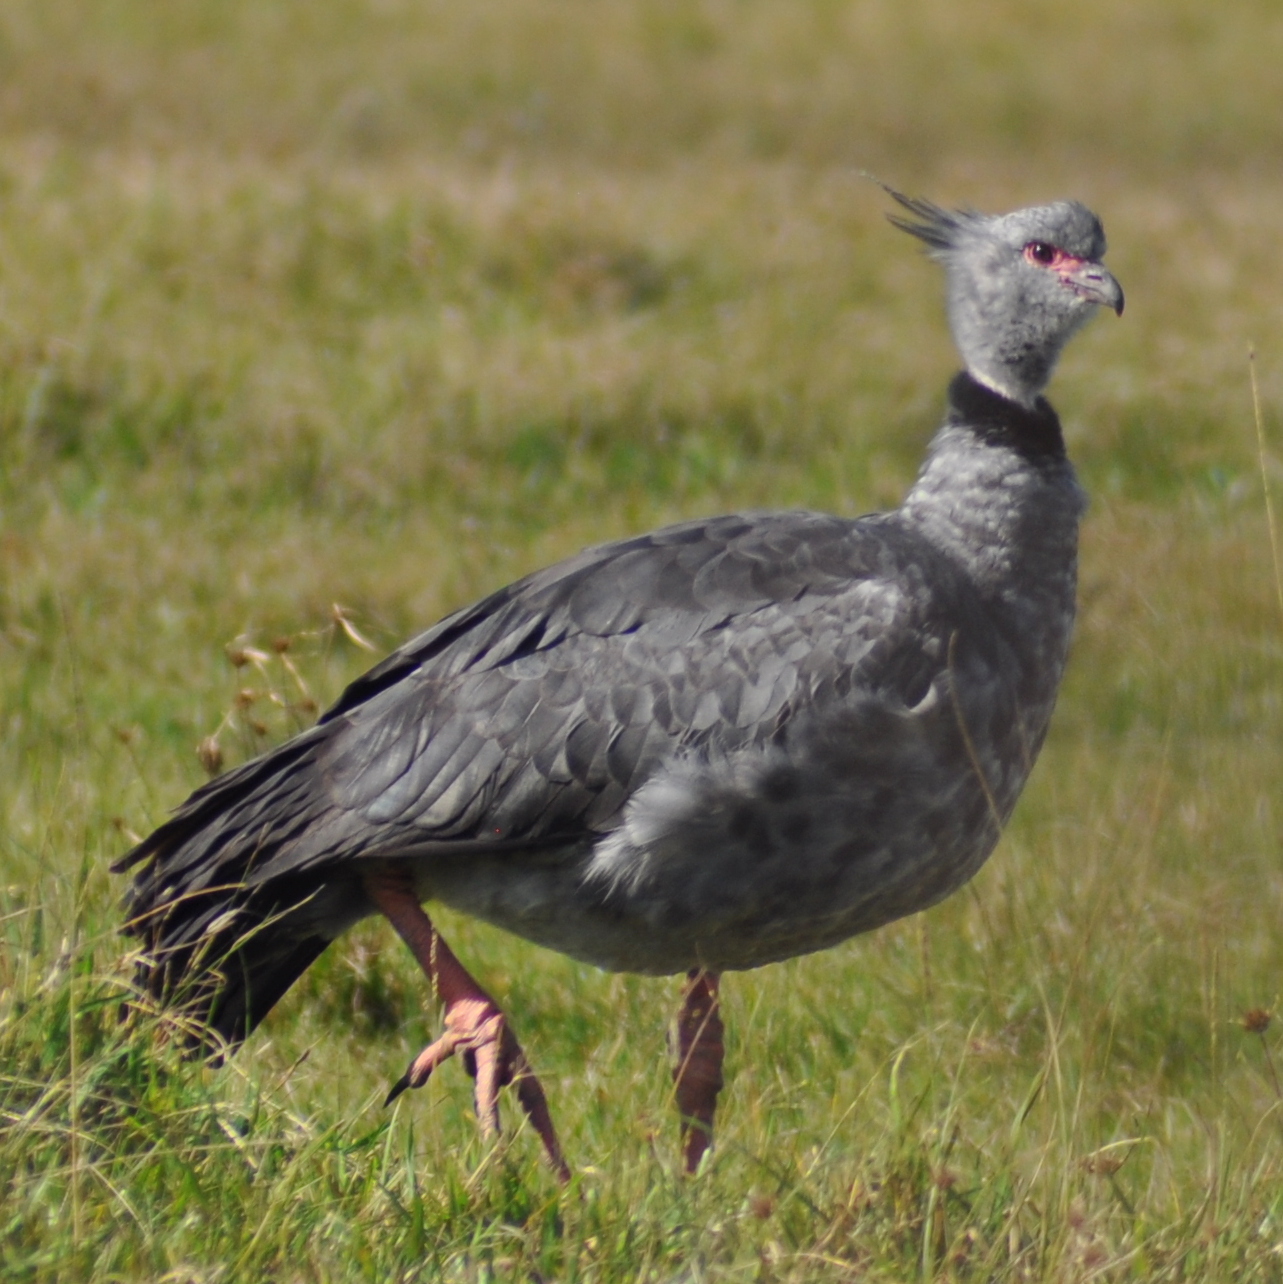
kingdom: Animalia
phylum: Chordata
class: Aves
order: Anseriformes
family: Anhimidae
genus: Chauna
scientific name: Chauna torquata
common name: Southern screamer
